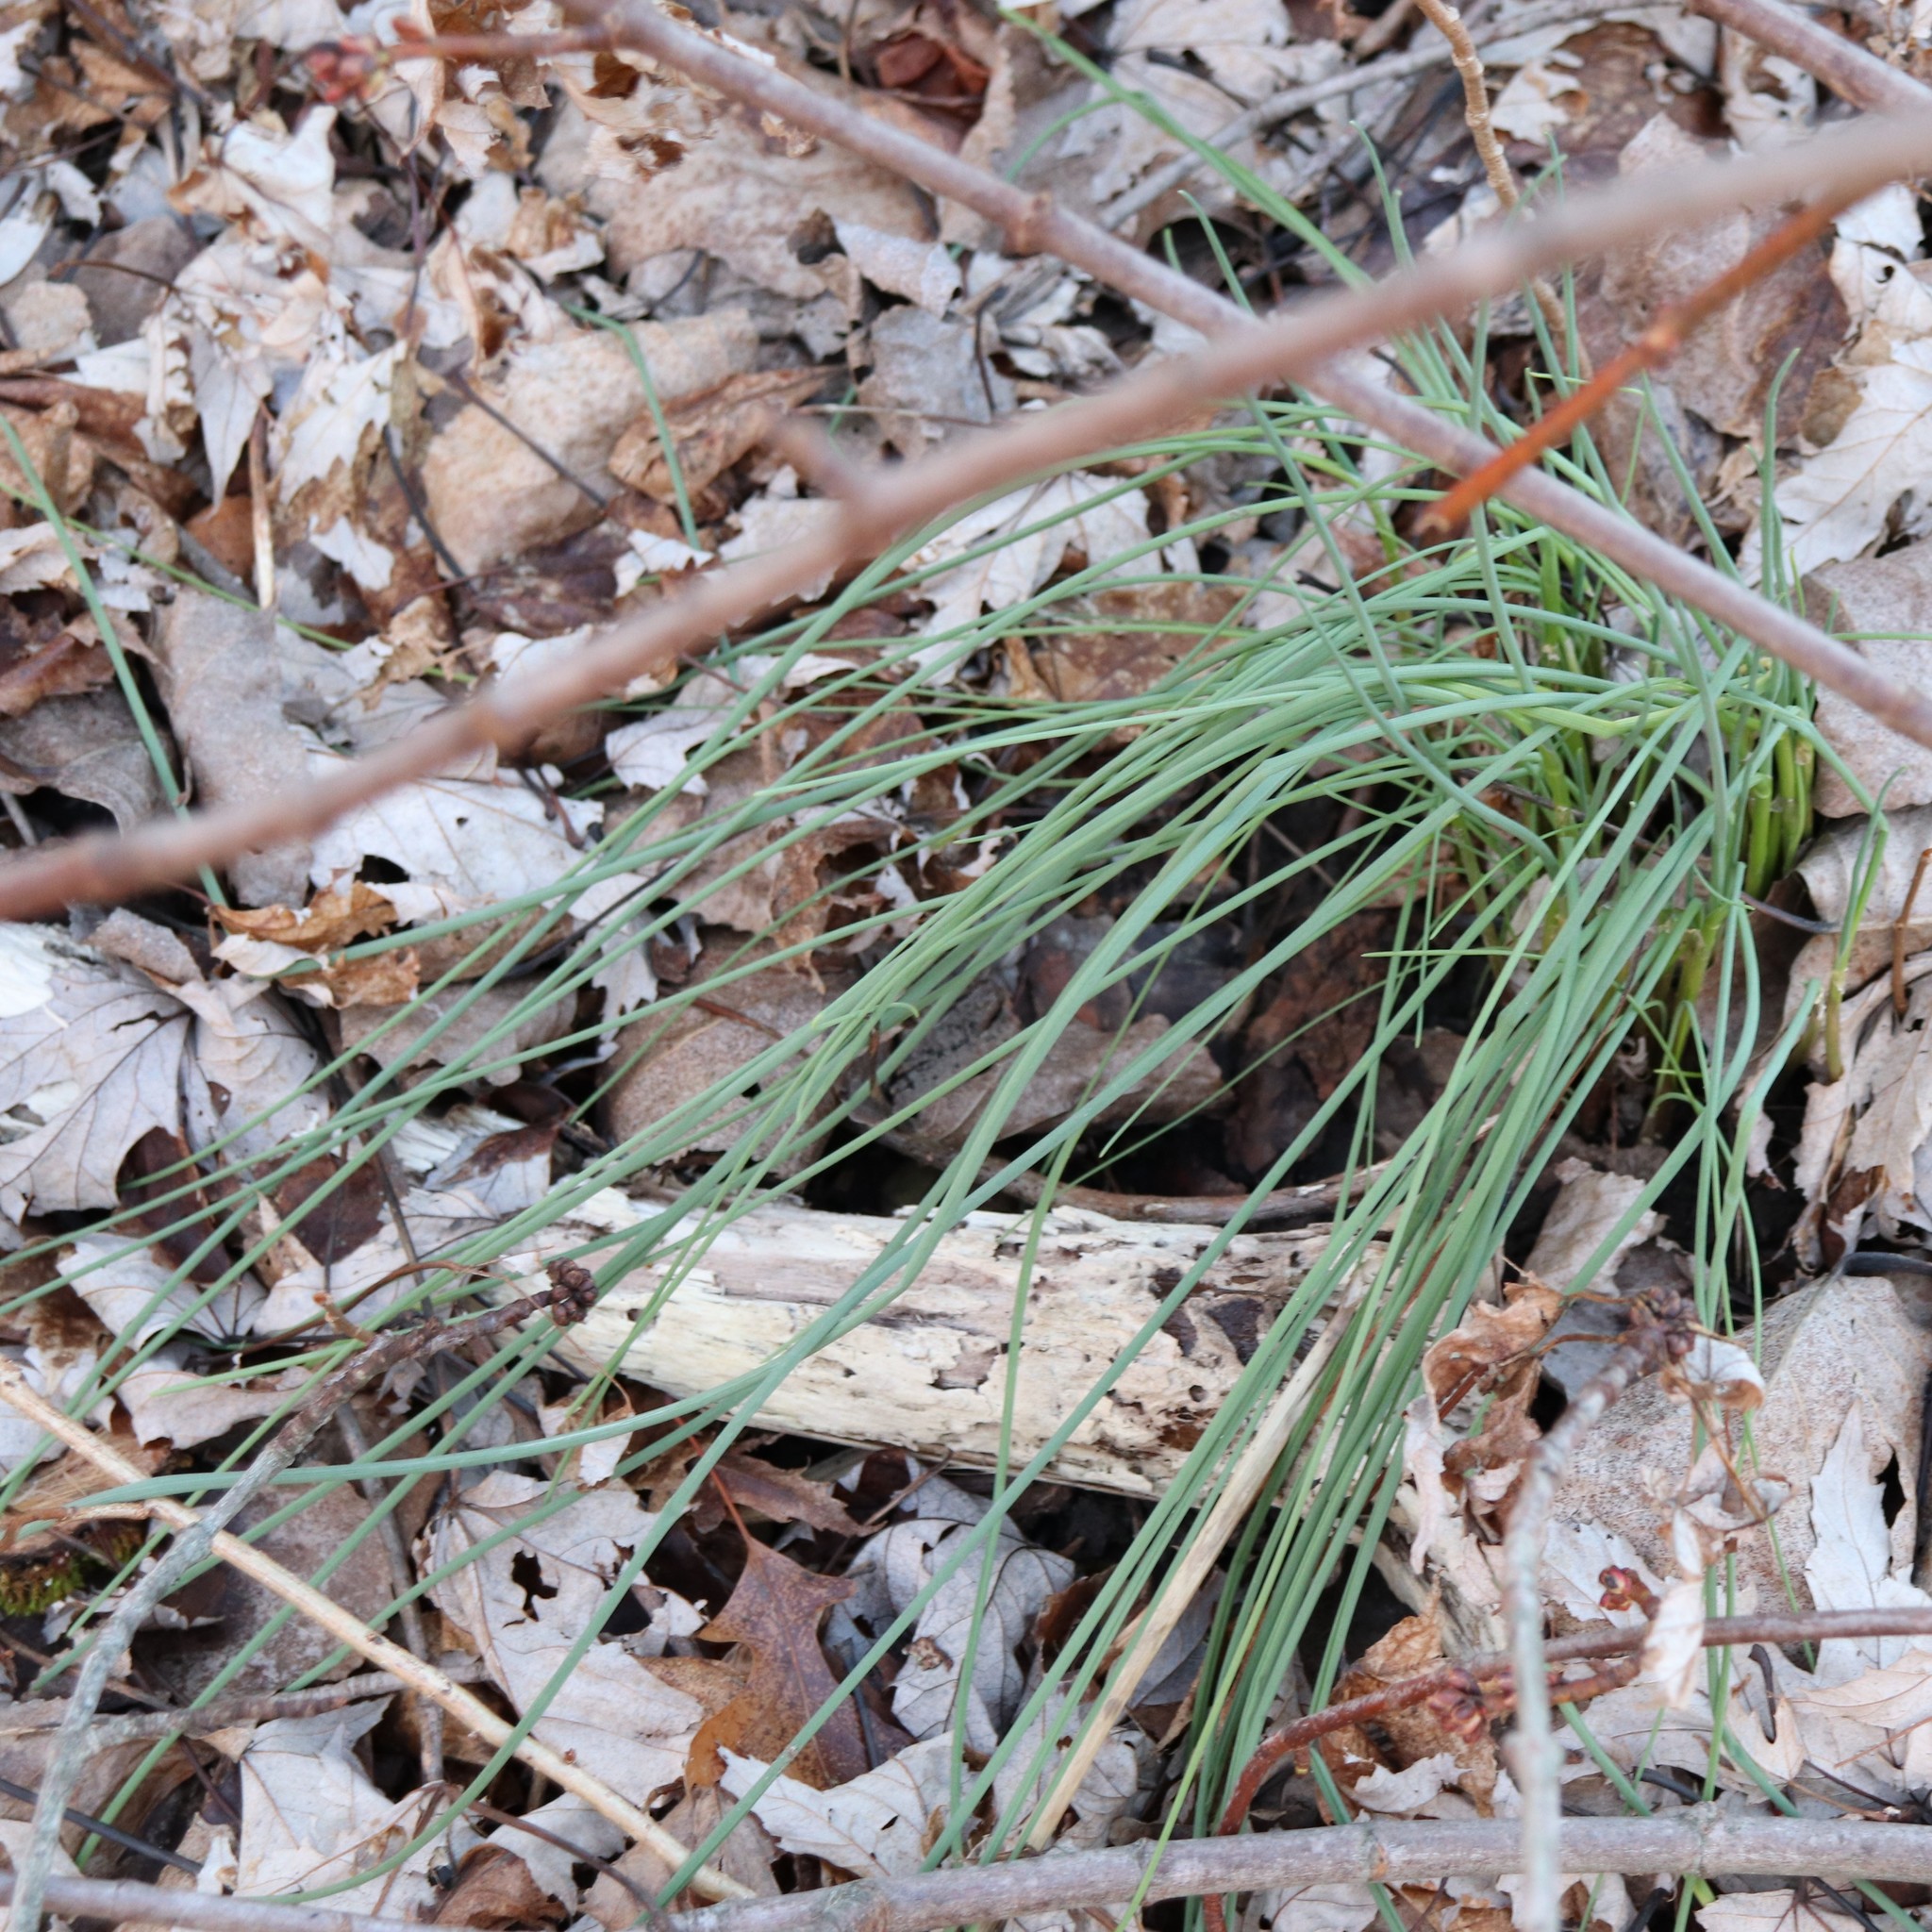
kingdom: Plantae
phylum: Tracheophyta
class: Liliopsida
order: Asparagales
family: Amaryllidaceae
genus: Allium
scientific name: Allium vineale
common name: Crow garlic
